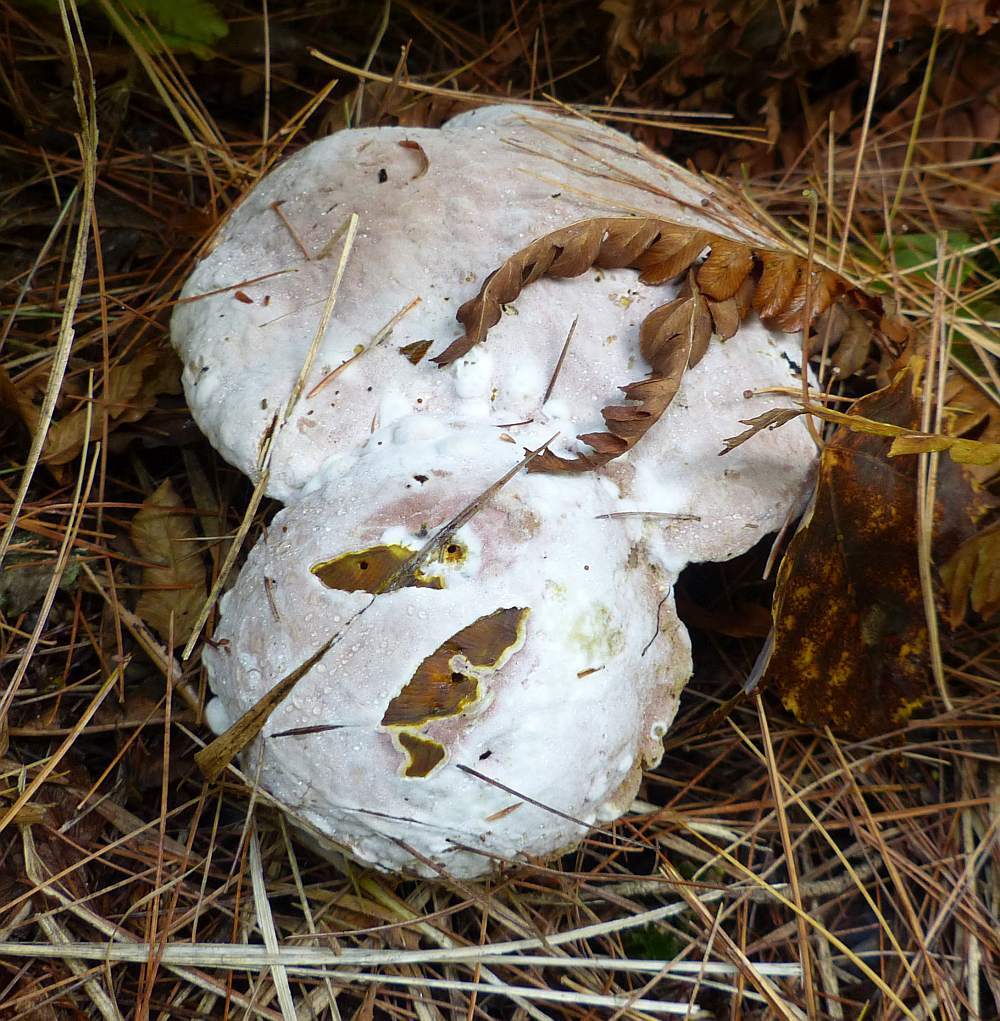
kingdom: Fungi
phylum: Ascomycota
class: Sordariomycetes
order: Hypocreales
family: Hypocreaceae
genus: Hypomyces
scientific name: Hypomyces chrysospermus
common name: Bolete mould
